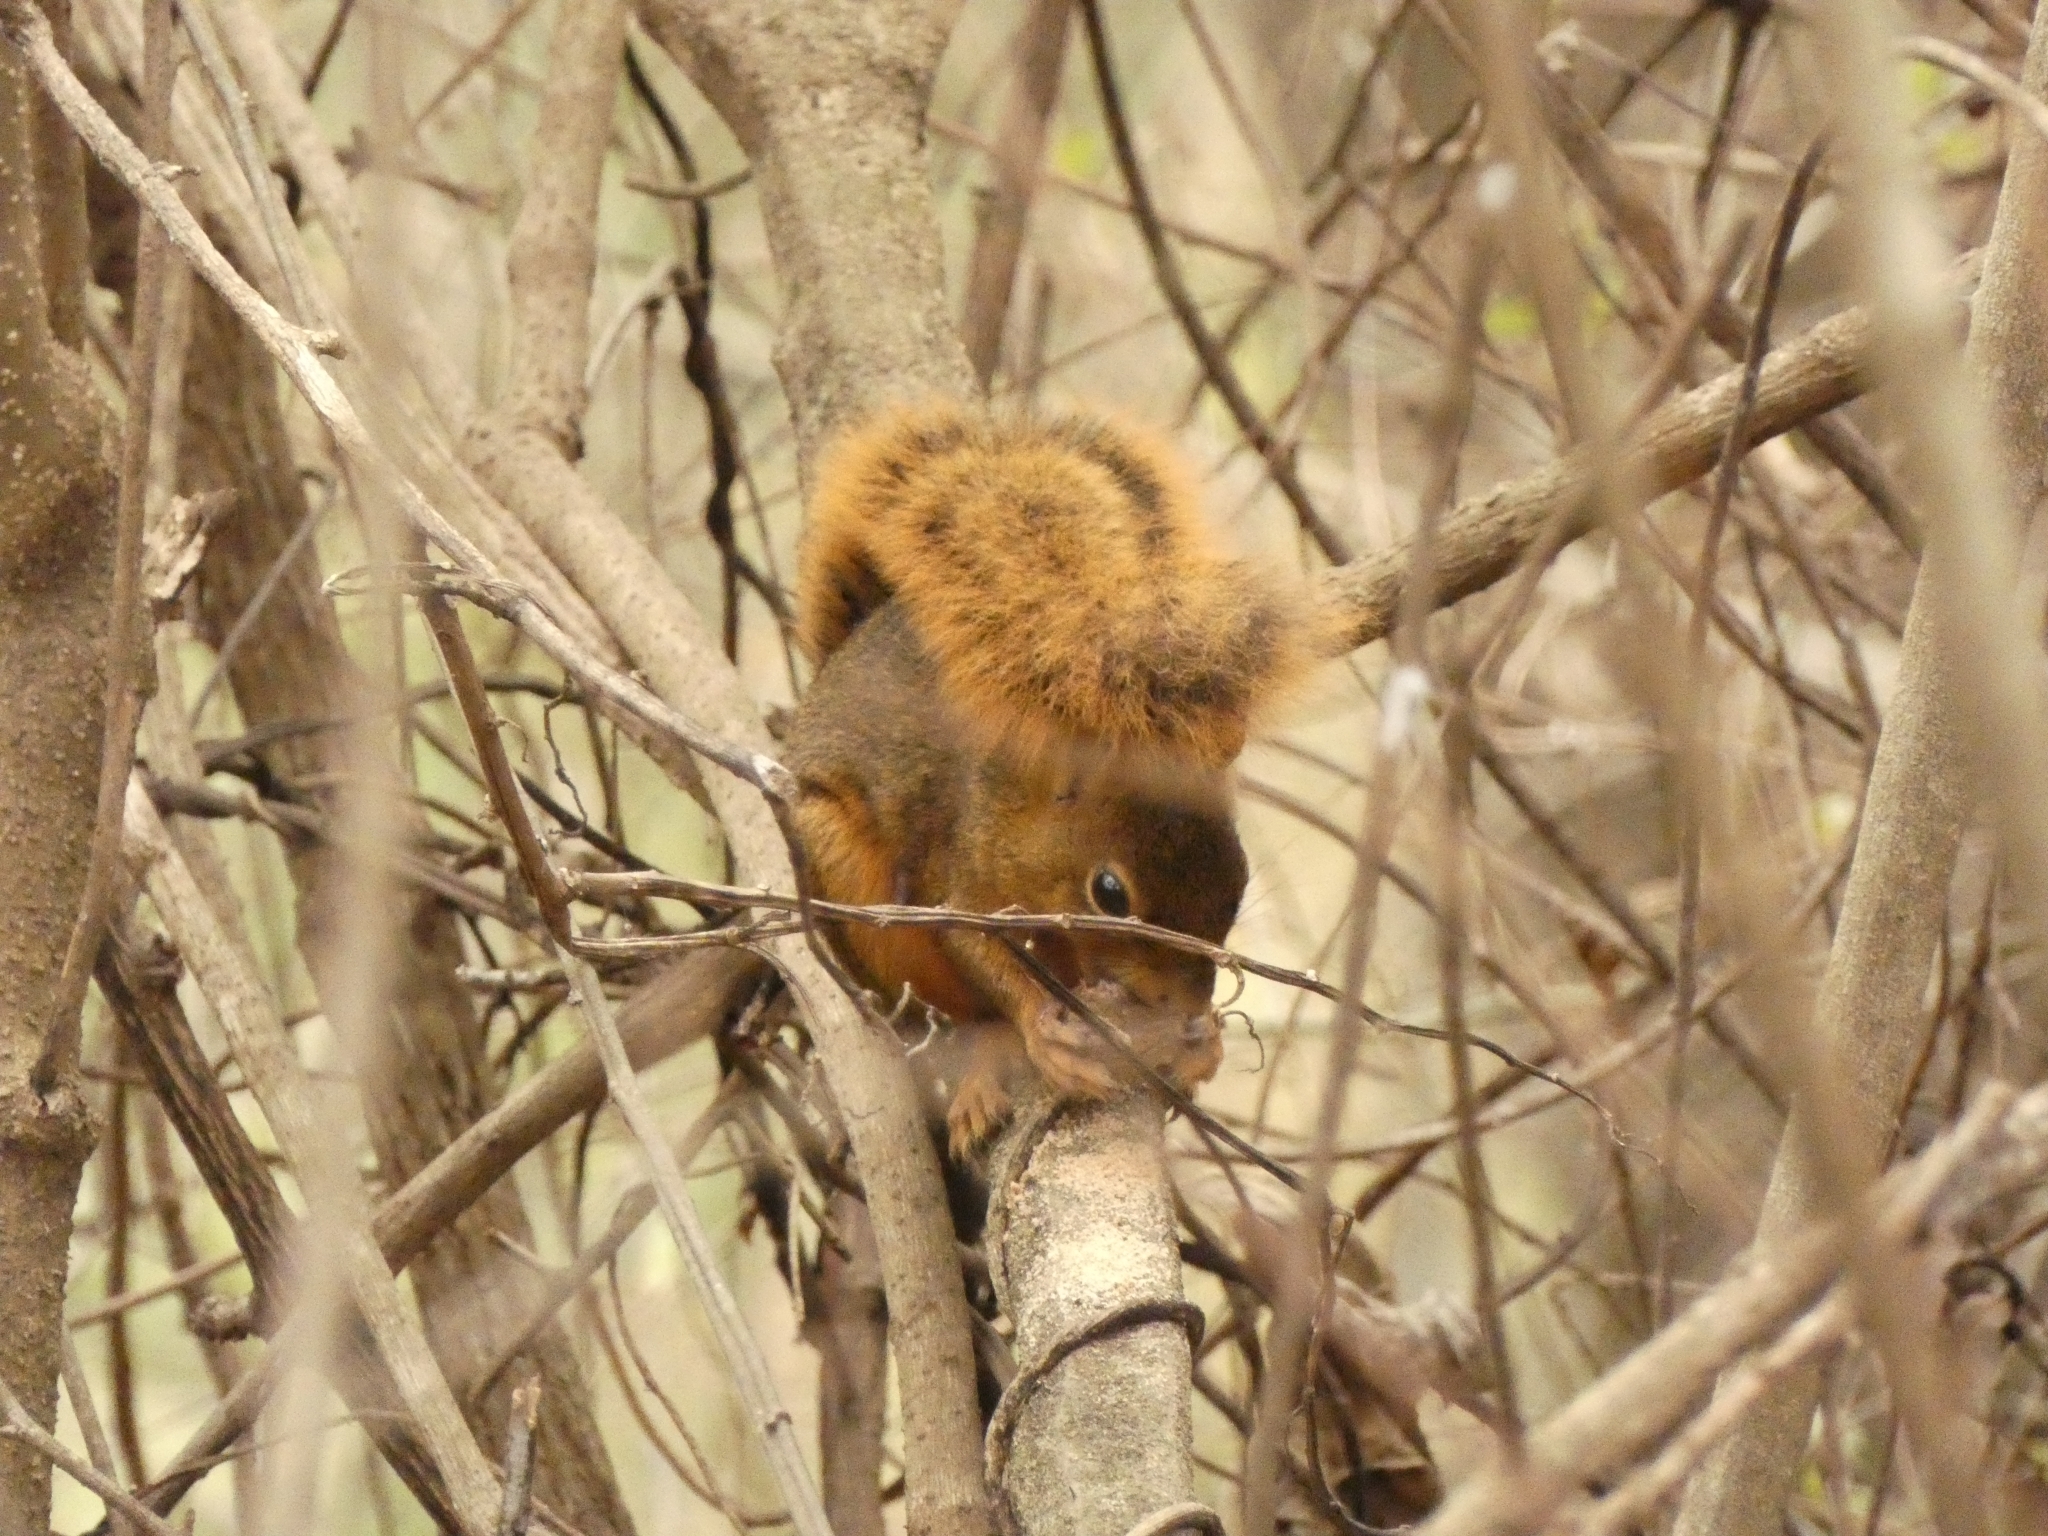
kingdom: Animalia
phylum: Chordata
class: Mammalia
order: Rodentia
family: Sciuridae
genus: Sciurus
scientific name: Sciurus ignitus
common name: Bolivian squirrel
